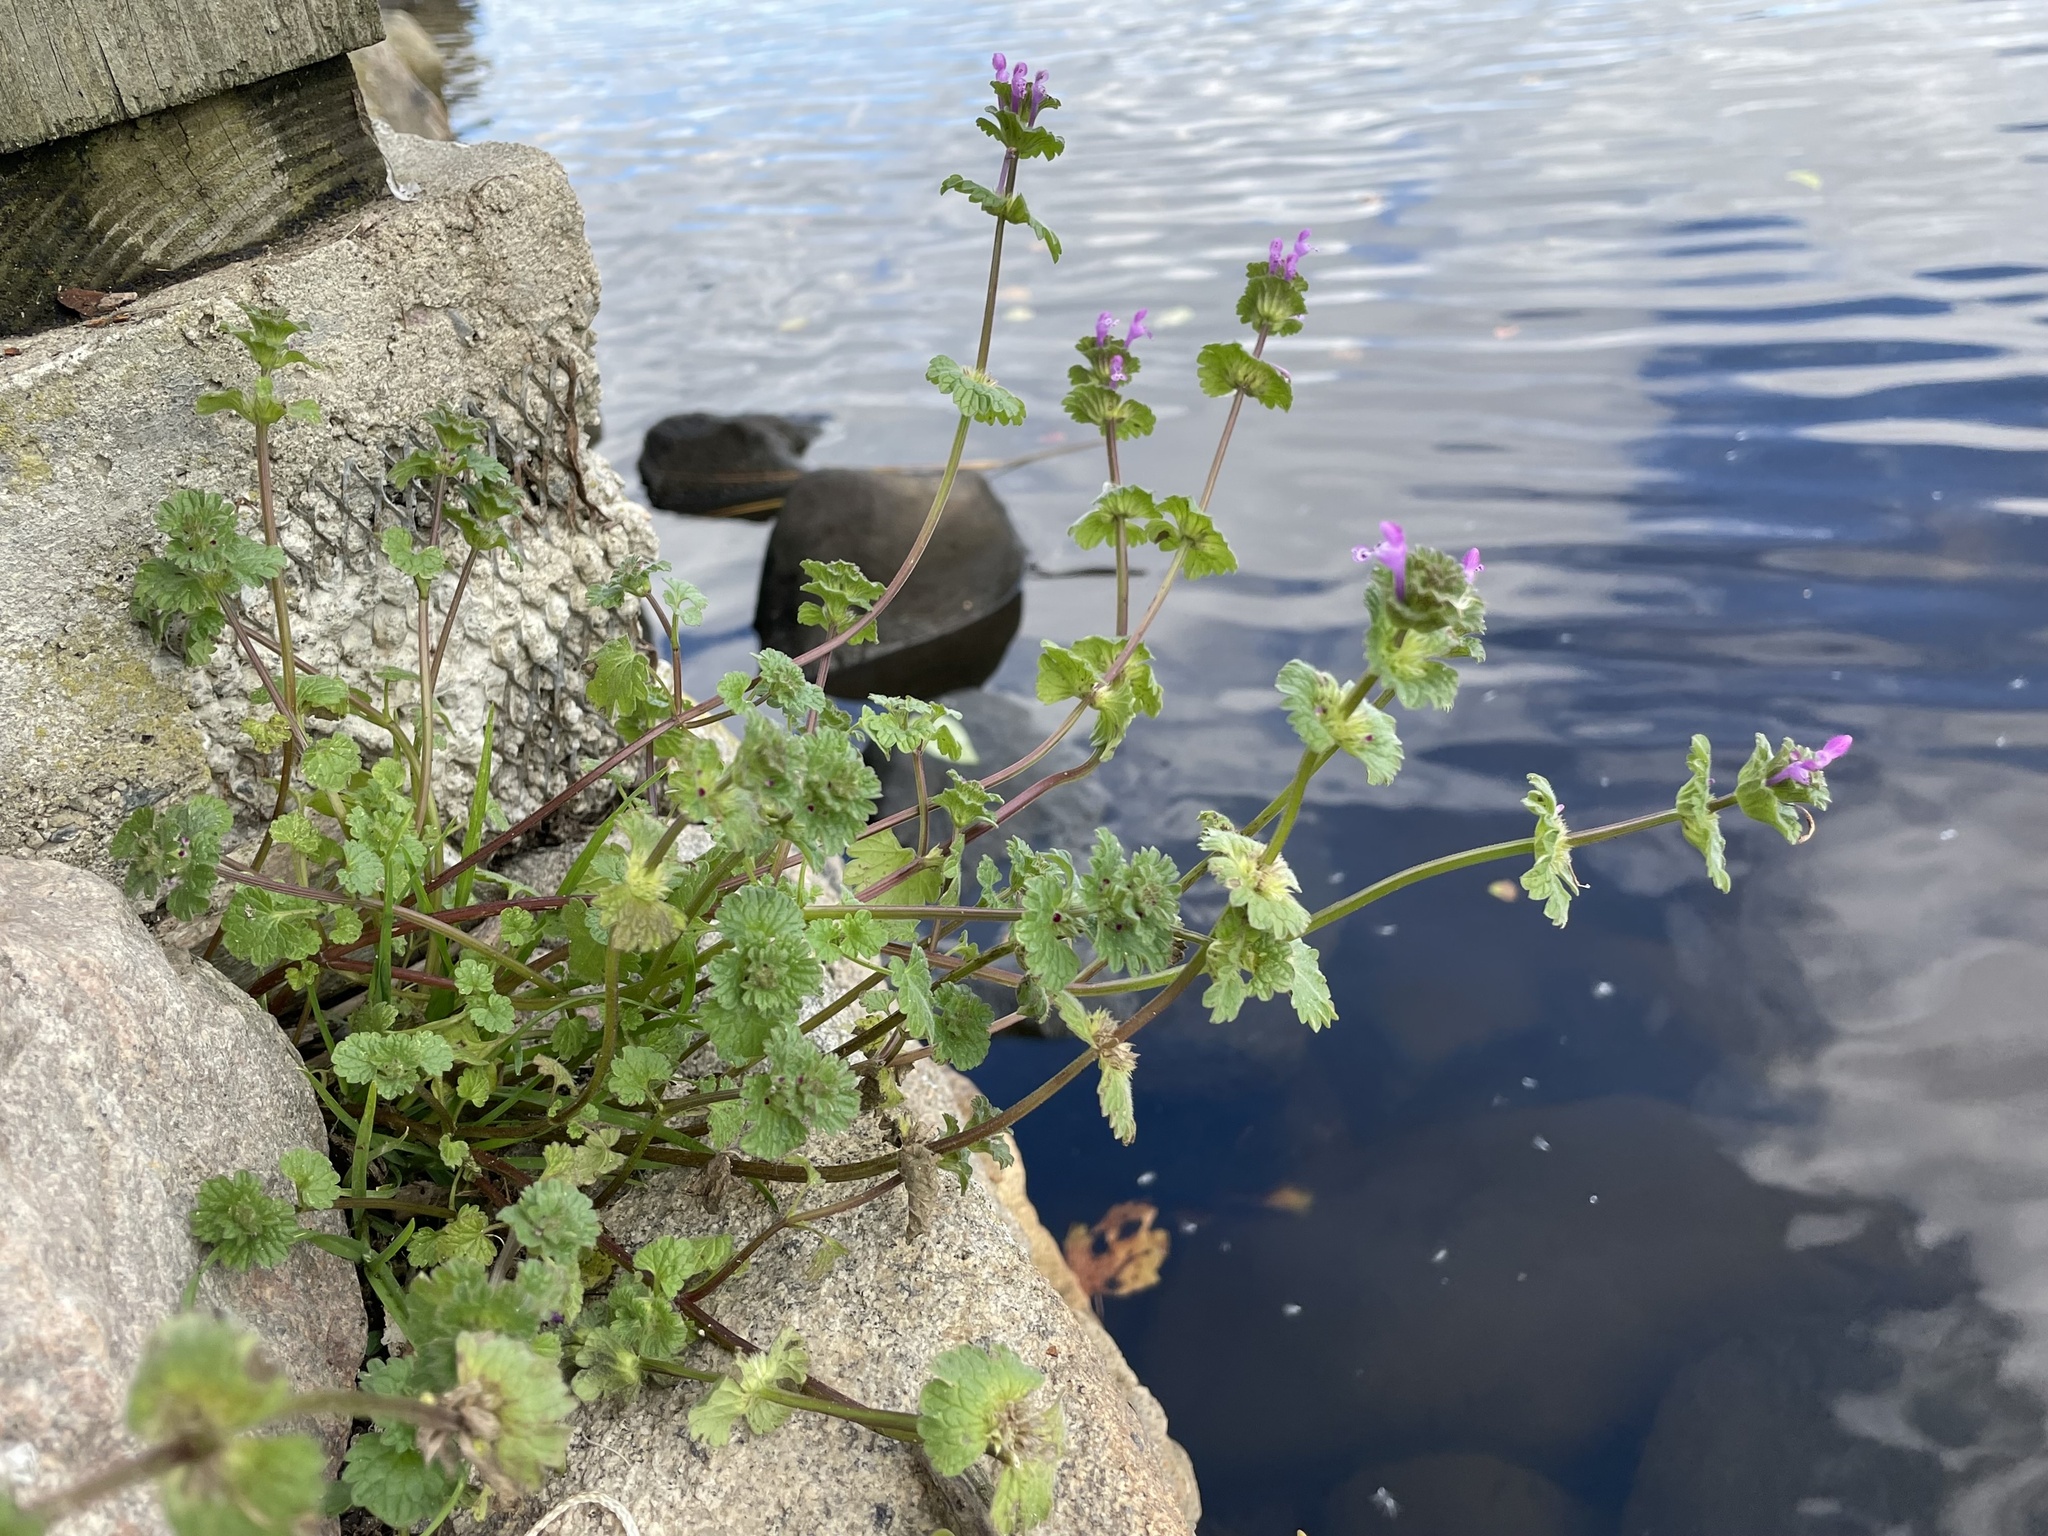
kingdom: Plantae
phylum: Tracheophyta
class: Magnoliopsida
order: Lamiales
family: Lamiaceae
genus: Lamium
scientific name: Lamium amplexicaule
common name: Henbit dead-nettle
